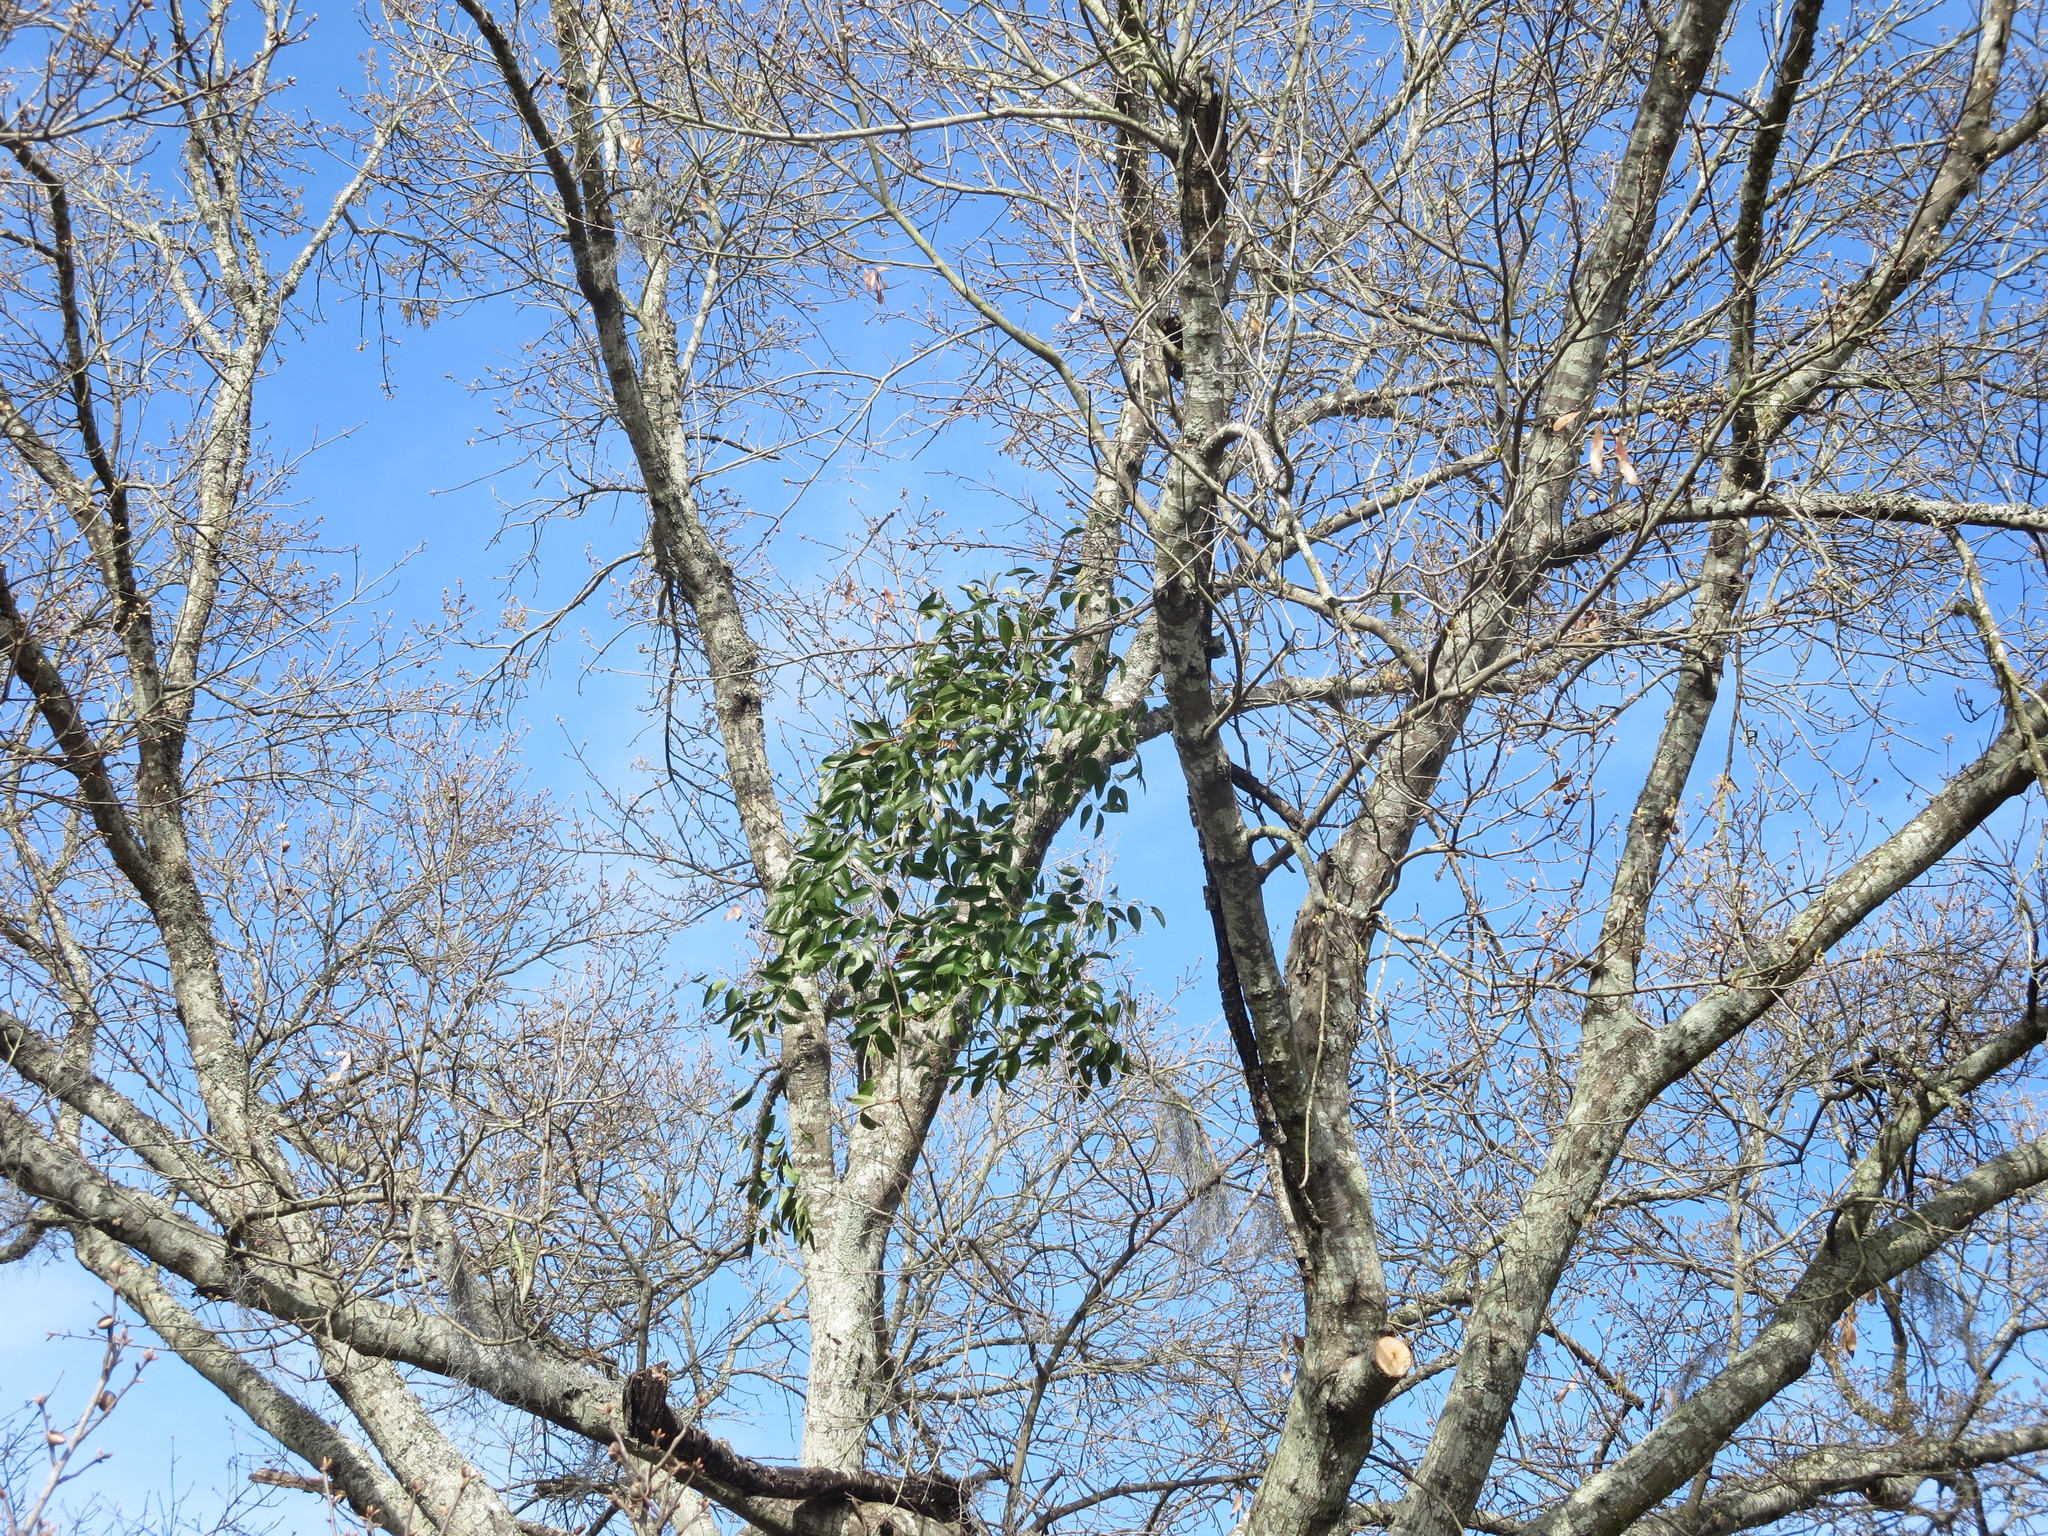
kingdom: Plantae
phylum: Tracheophyta
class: Liliopsida
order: Liliales
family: Smilacaceae
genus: Smilax
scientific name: Smilax maritima
